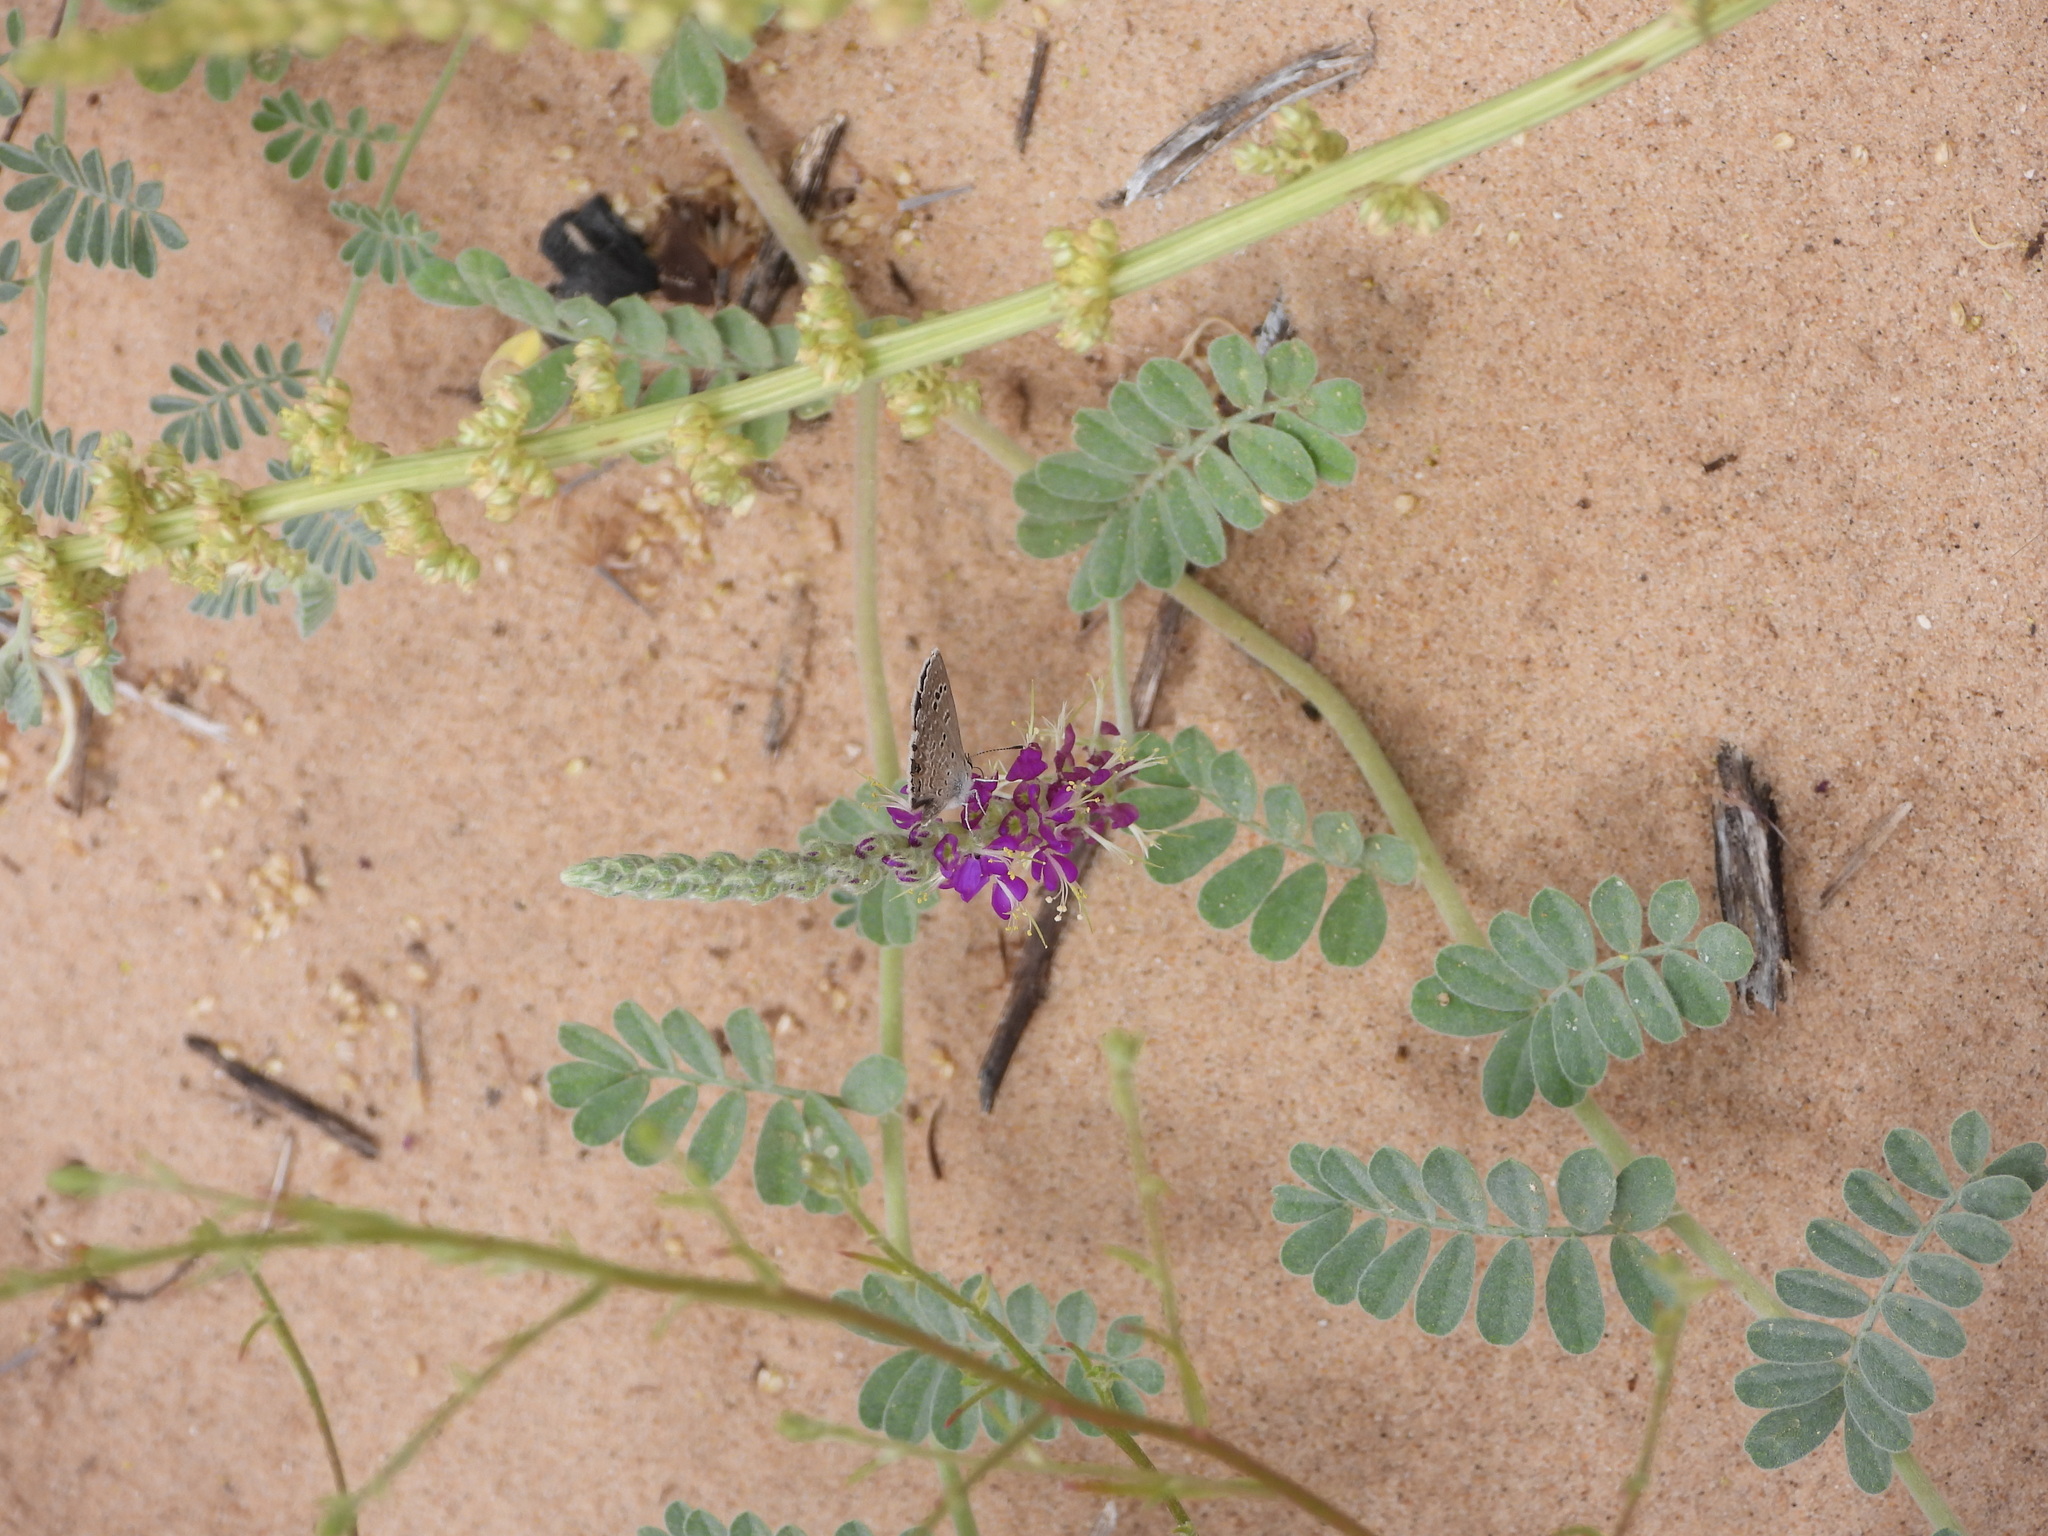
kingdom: Plantae
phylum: Tracheophyta
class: Magnoliopsida
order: Fabales
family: Fabaceae
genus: Dalea
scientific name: Dalea lanata
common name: Woolly dalea
